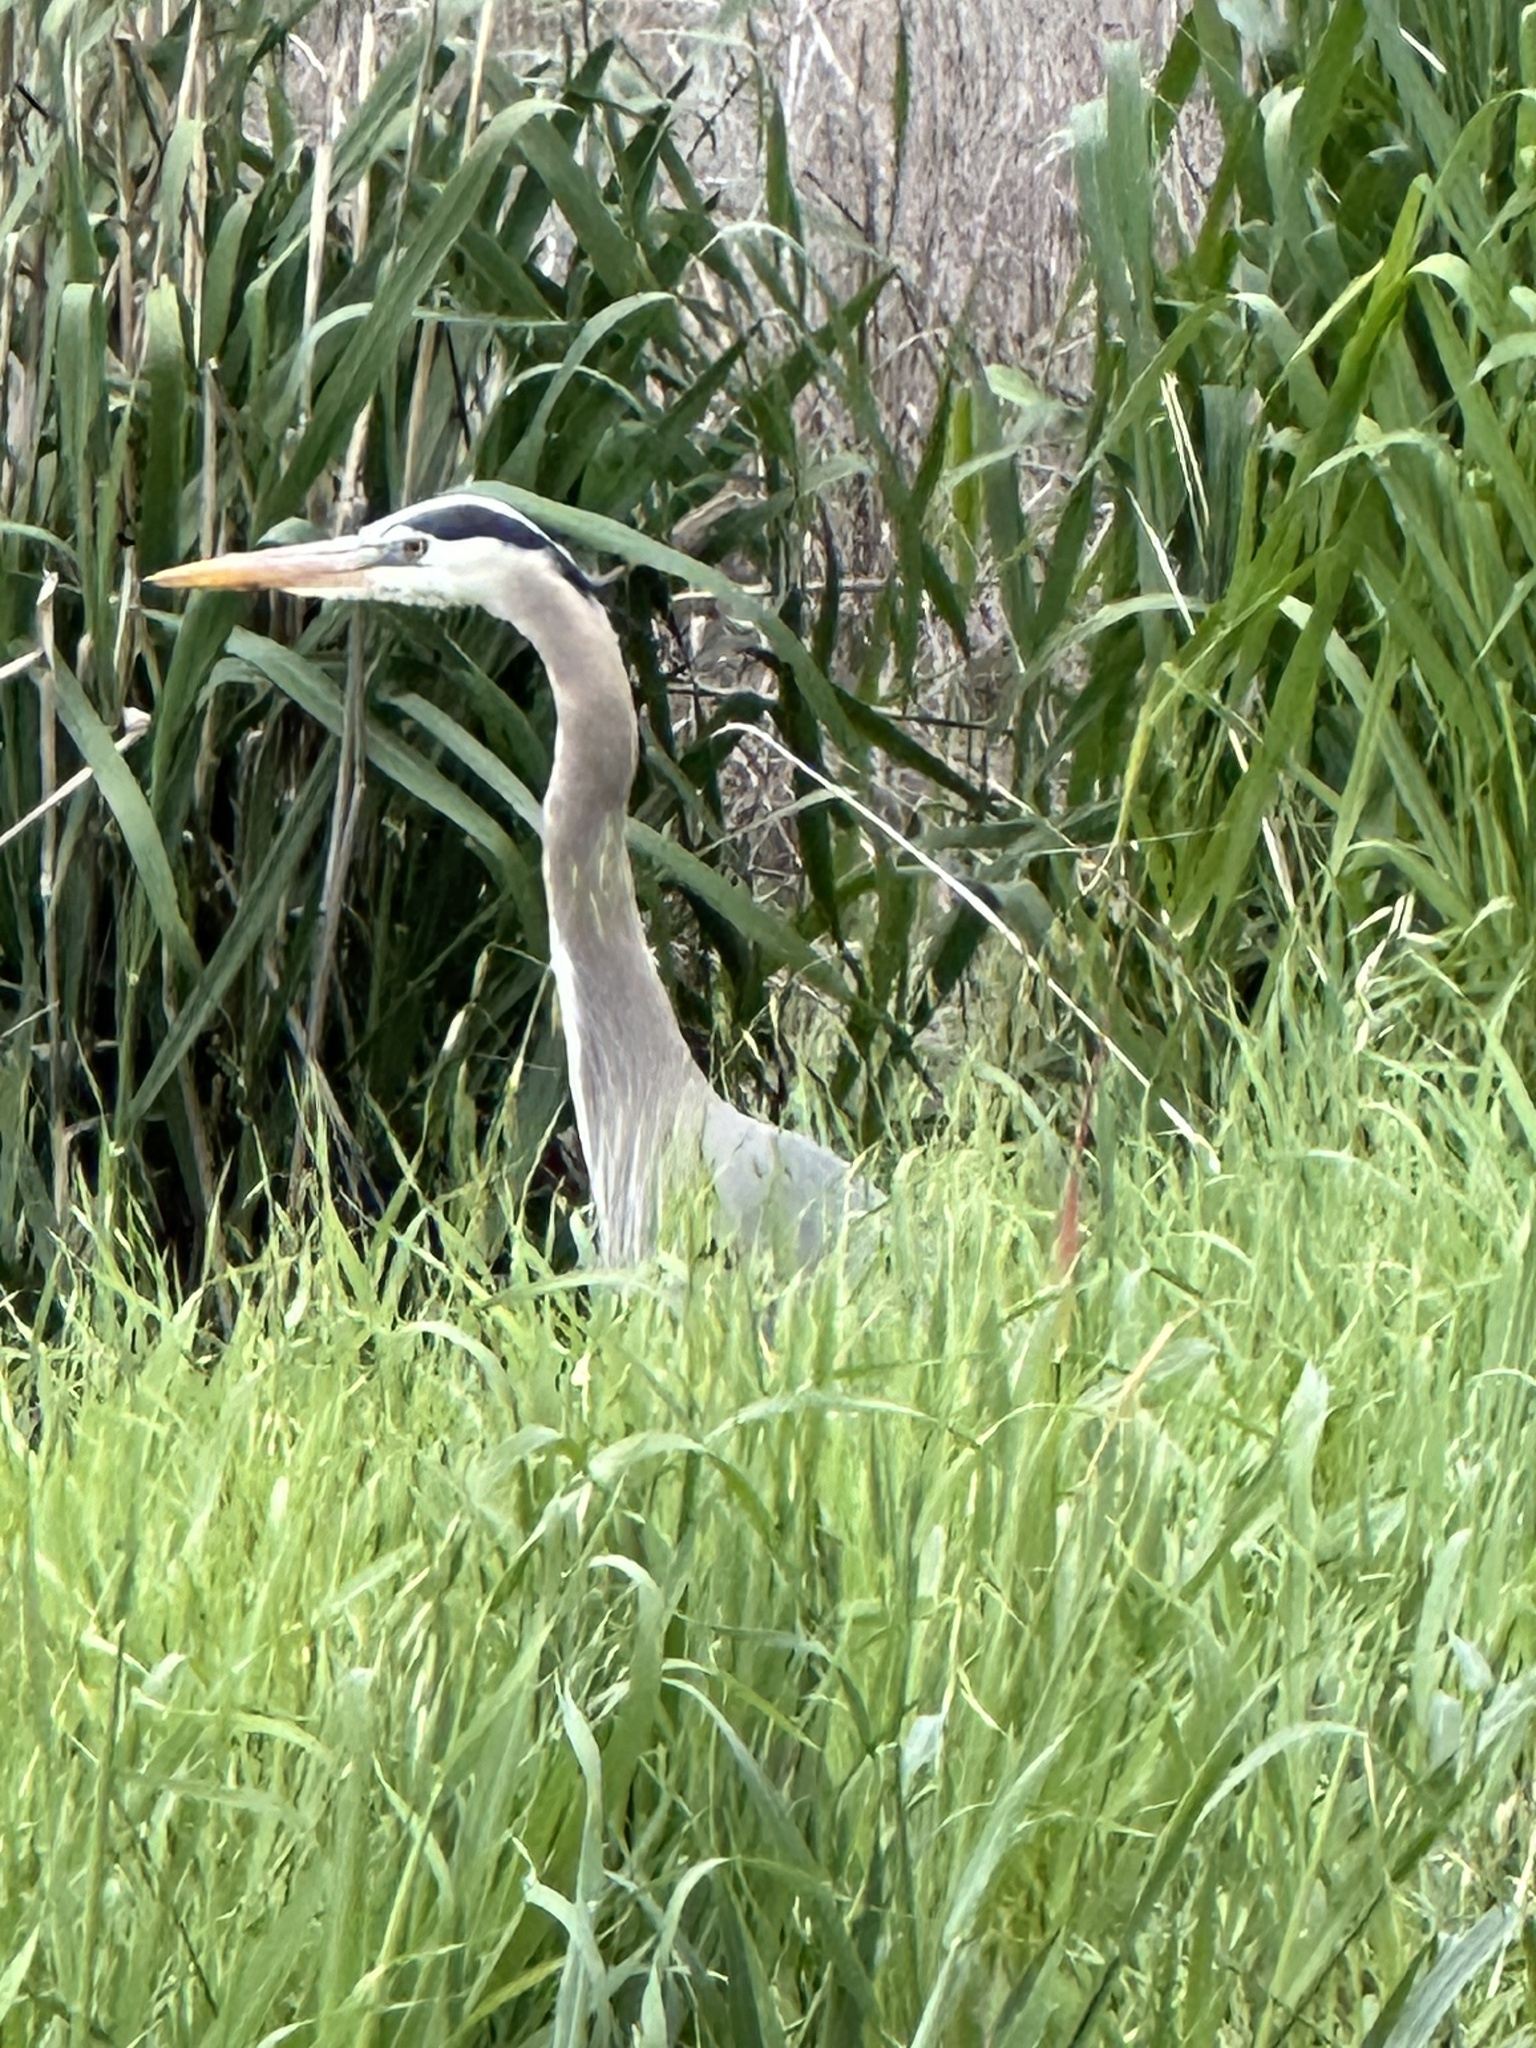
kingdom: Animalia
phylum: Chordata
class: Aves
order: Pelecaniformes
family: Ardeidae
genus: Ardea
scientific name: Ardea herodias
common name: Great blue heron
